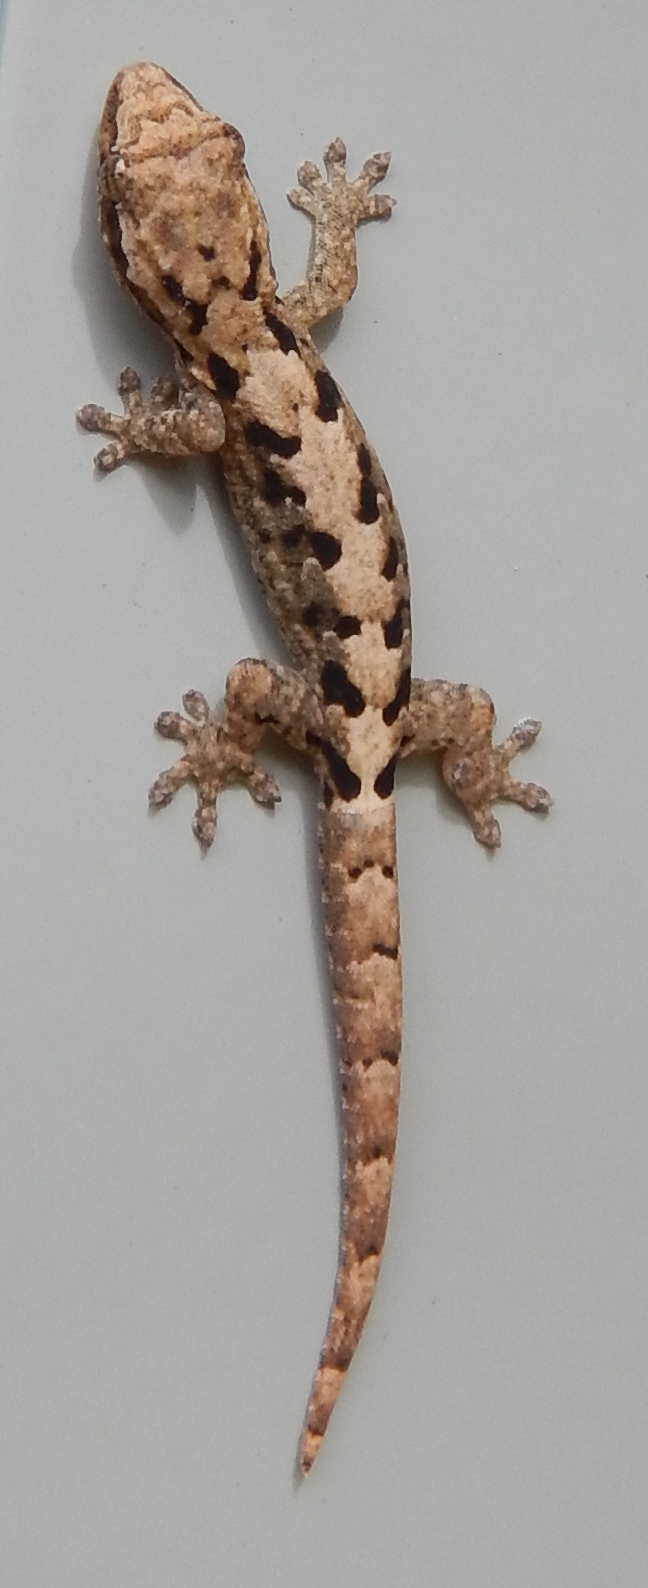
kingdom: Animalia
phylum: Chordata
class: Squamata
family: Gekkonidae
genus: Lepidodactylus
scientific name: Lepidodactylus lugubris
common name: Mourning gecko
